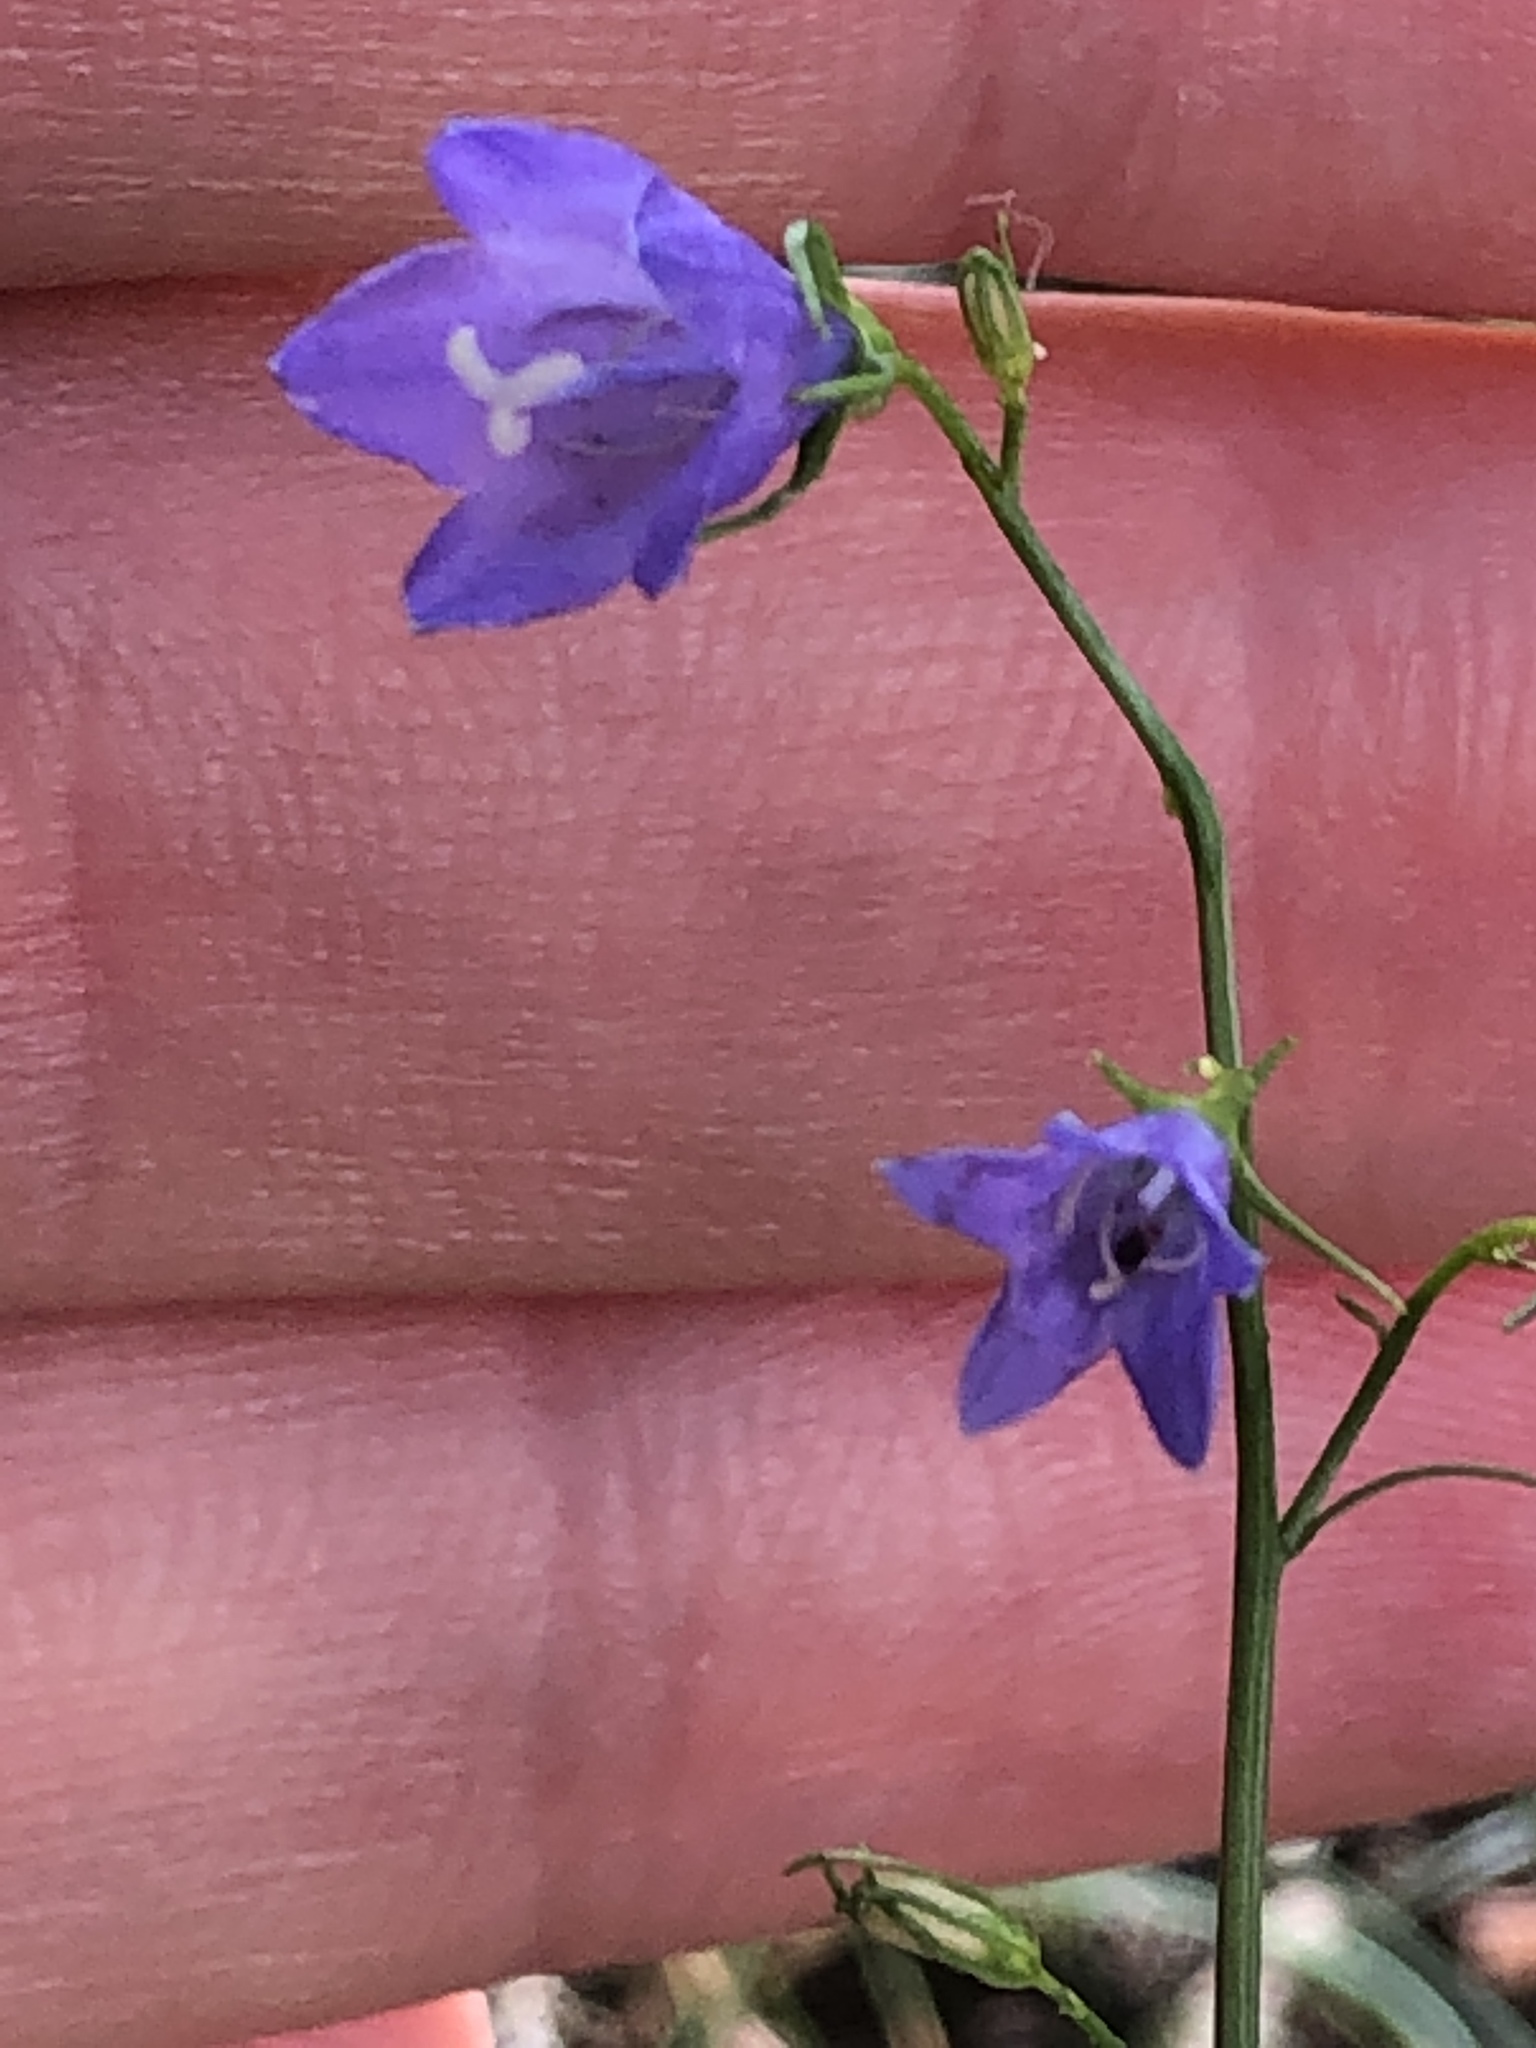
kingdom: Plantae
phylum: Tracheophyta
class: Magnoliopsida
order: Asterales
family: Campanulaceae
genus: Campanula
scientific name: Campanula rotundifolia
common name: Harebell
